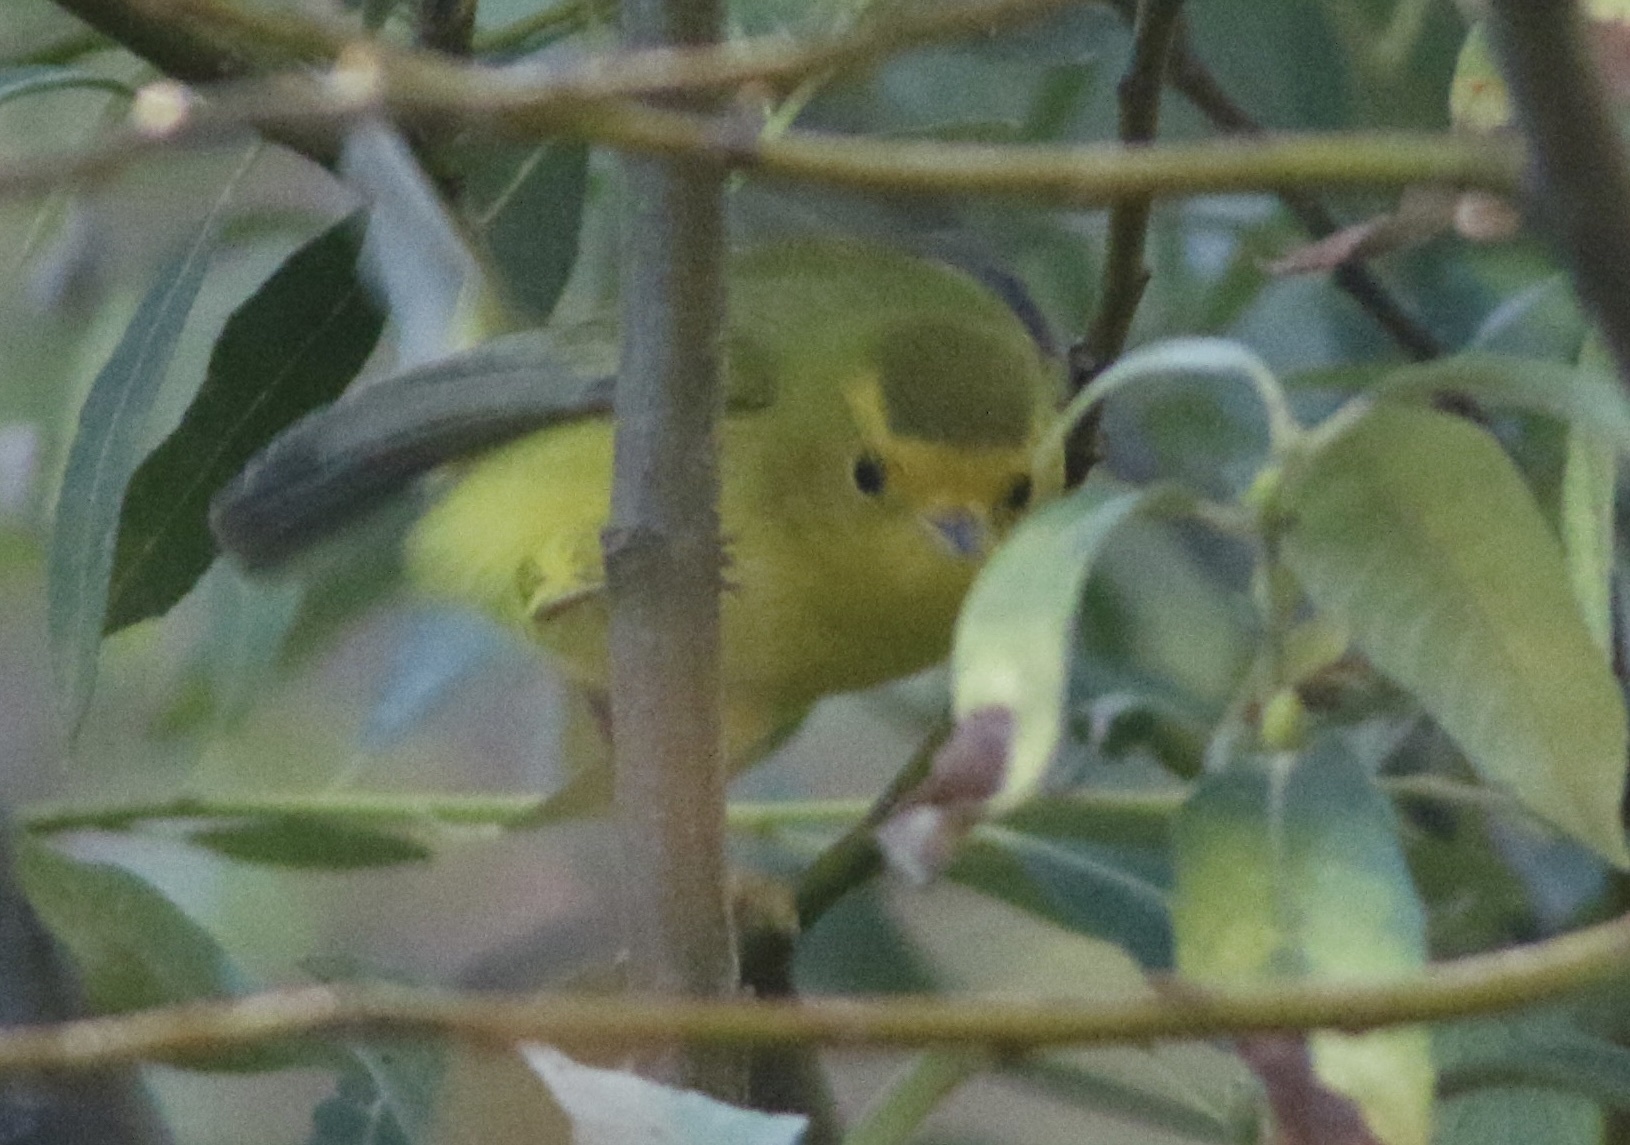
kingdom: Animalia
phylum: Chordata
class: Aves
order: Passeriformes
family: Parulidae
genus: Cardellina
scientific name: Cardellina pusilla
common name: Wilson's warbler
